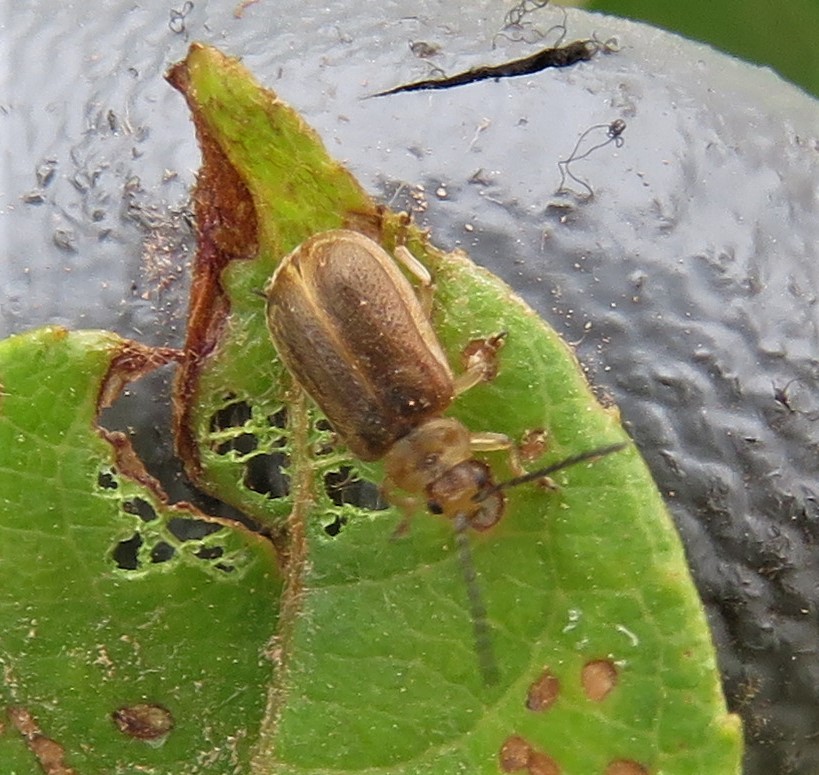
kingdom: Animalia
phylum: Arthropoda
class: Insecta
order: Coleoptera
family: Chrysomelidae
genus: Tricholochmaea
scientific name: Tricholochmaea decora
